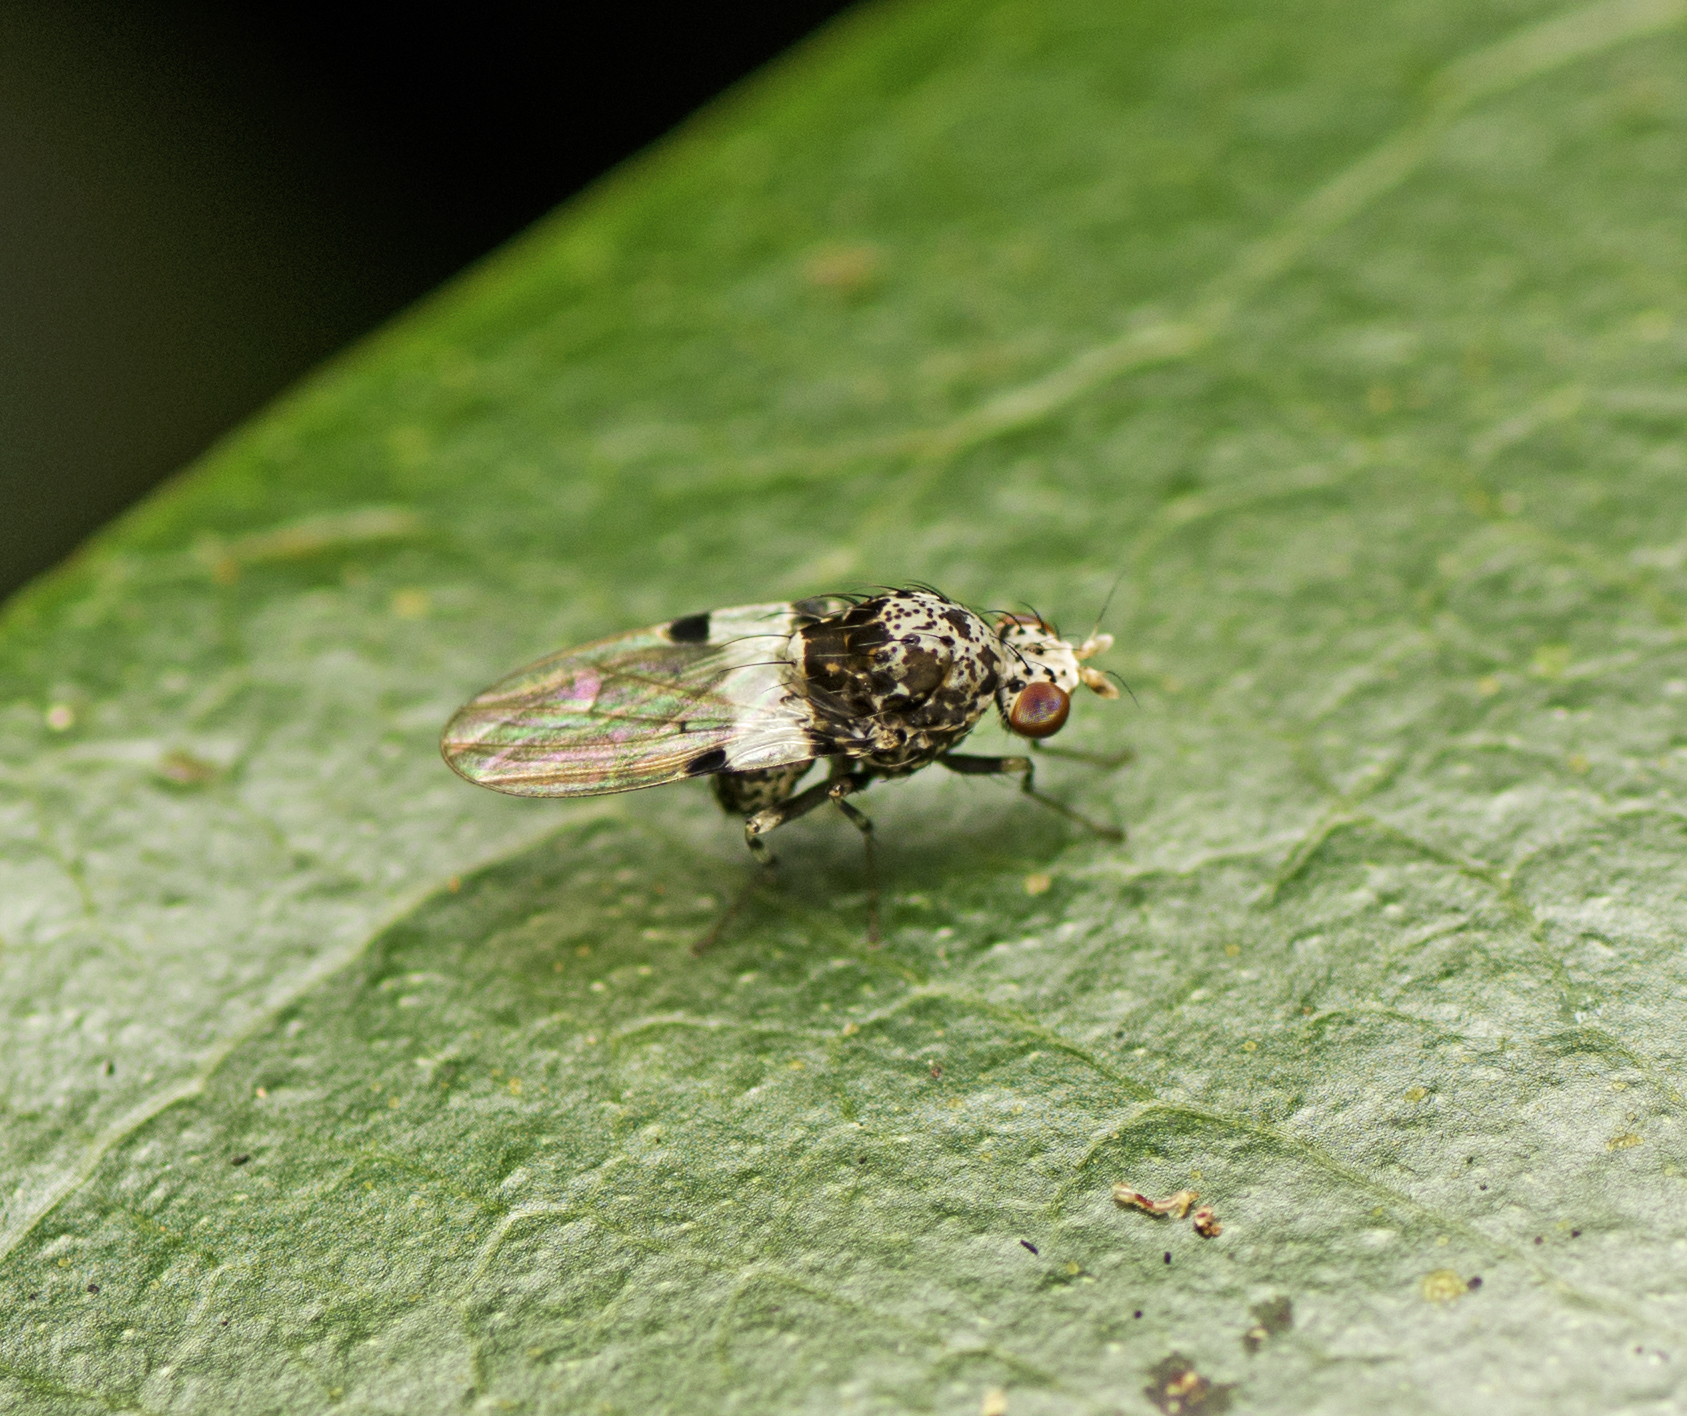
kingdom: Animalia
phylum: Arthropoda
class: Insecta
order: Diptera
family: Lauxaniidae
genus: Sapromyza
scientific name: Sapromyza pictigera
